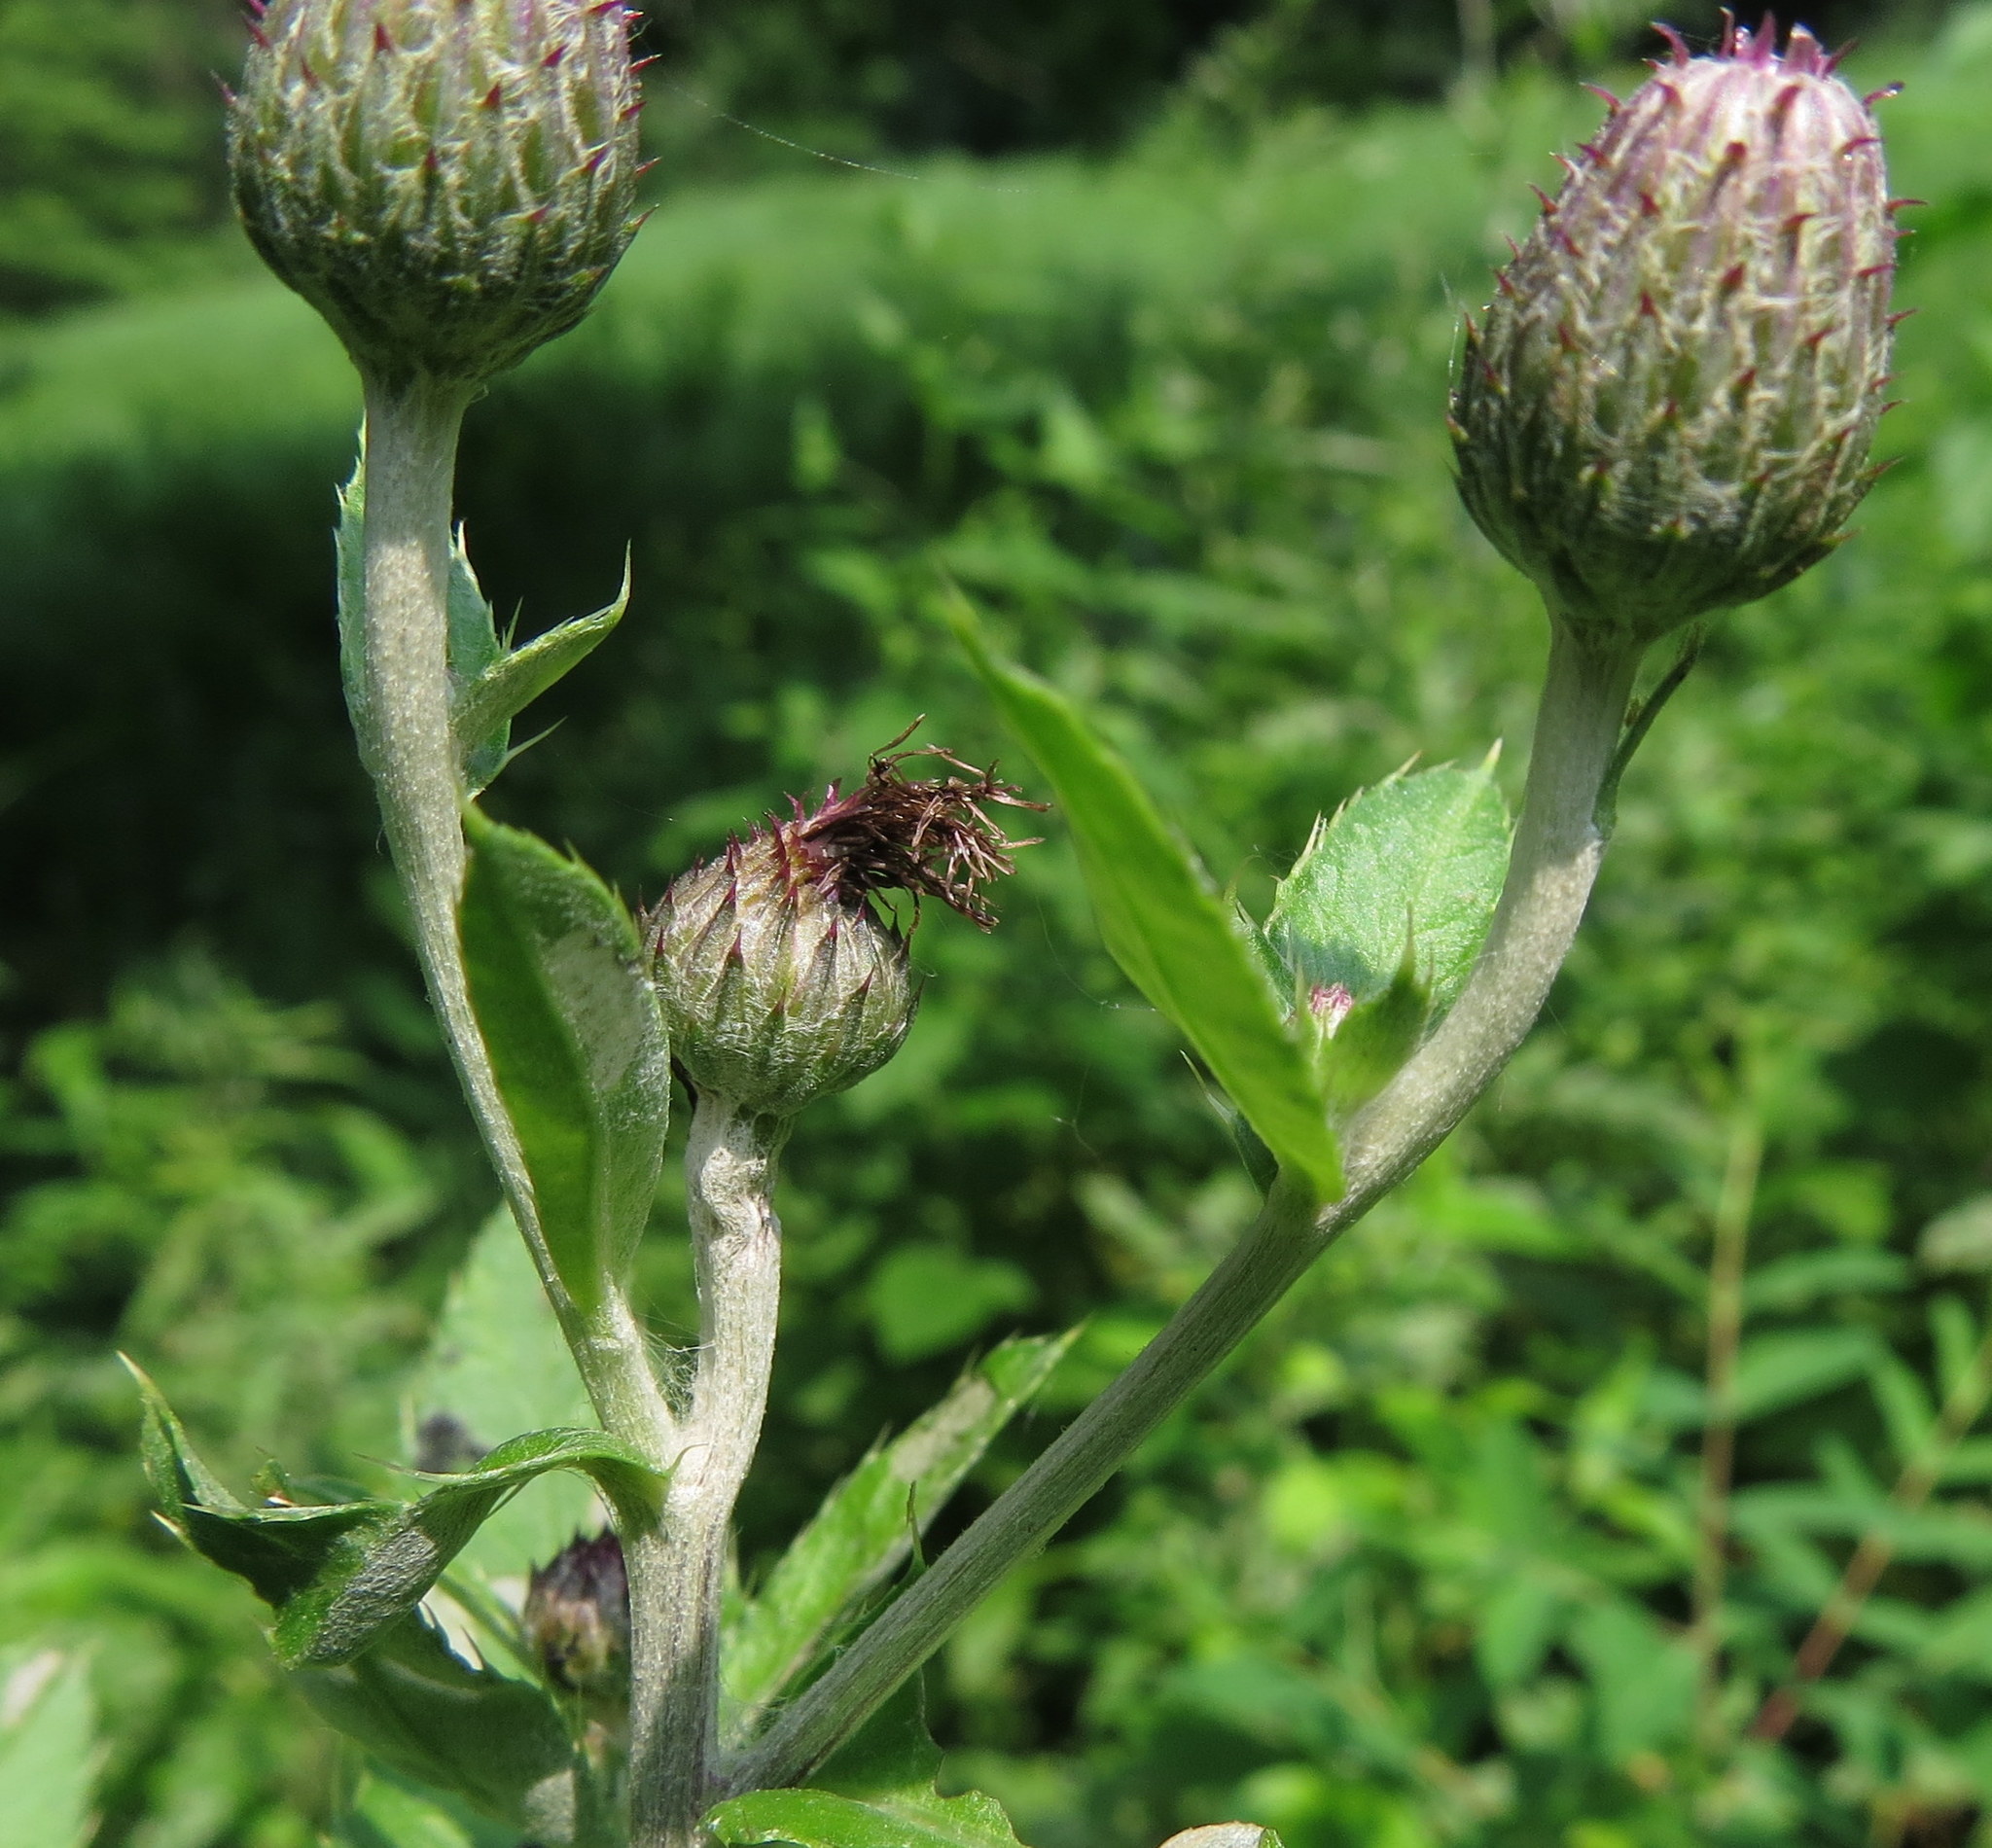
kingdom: Plantae
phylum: Tracheophyta
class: Magnoliopsida
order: Asterales
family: Asteraceae
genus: Cirsium
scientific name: Cirsium arvense
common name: Creeping thistle
